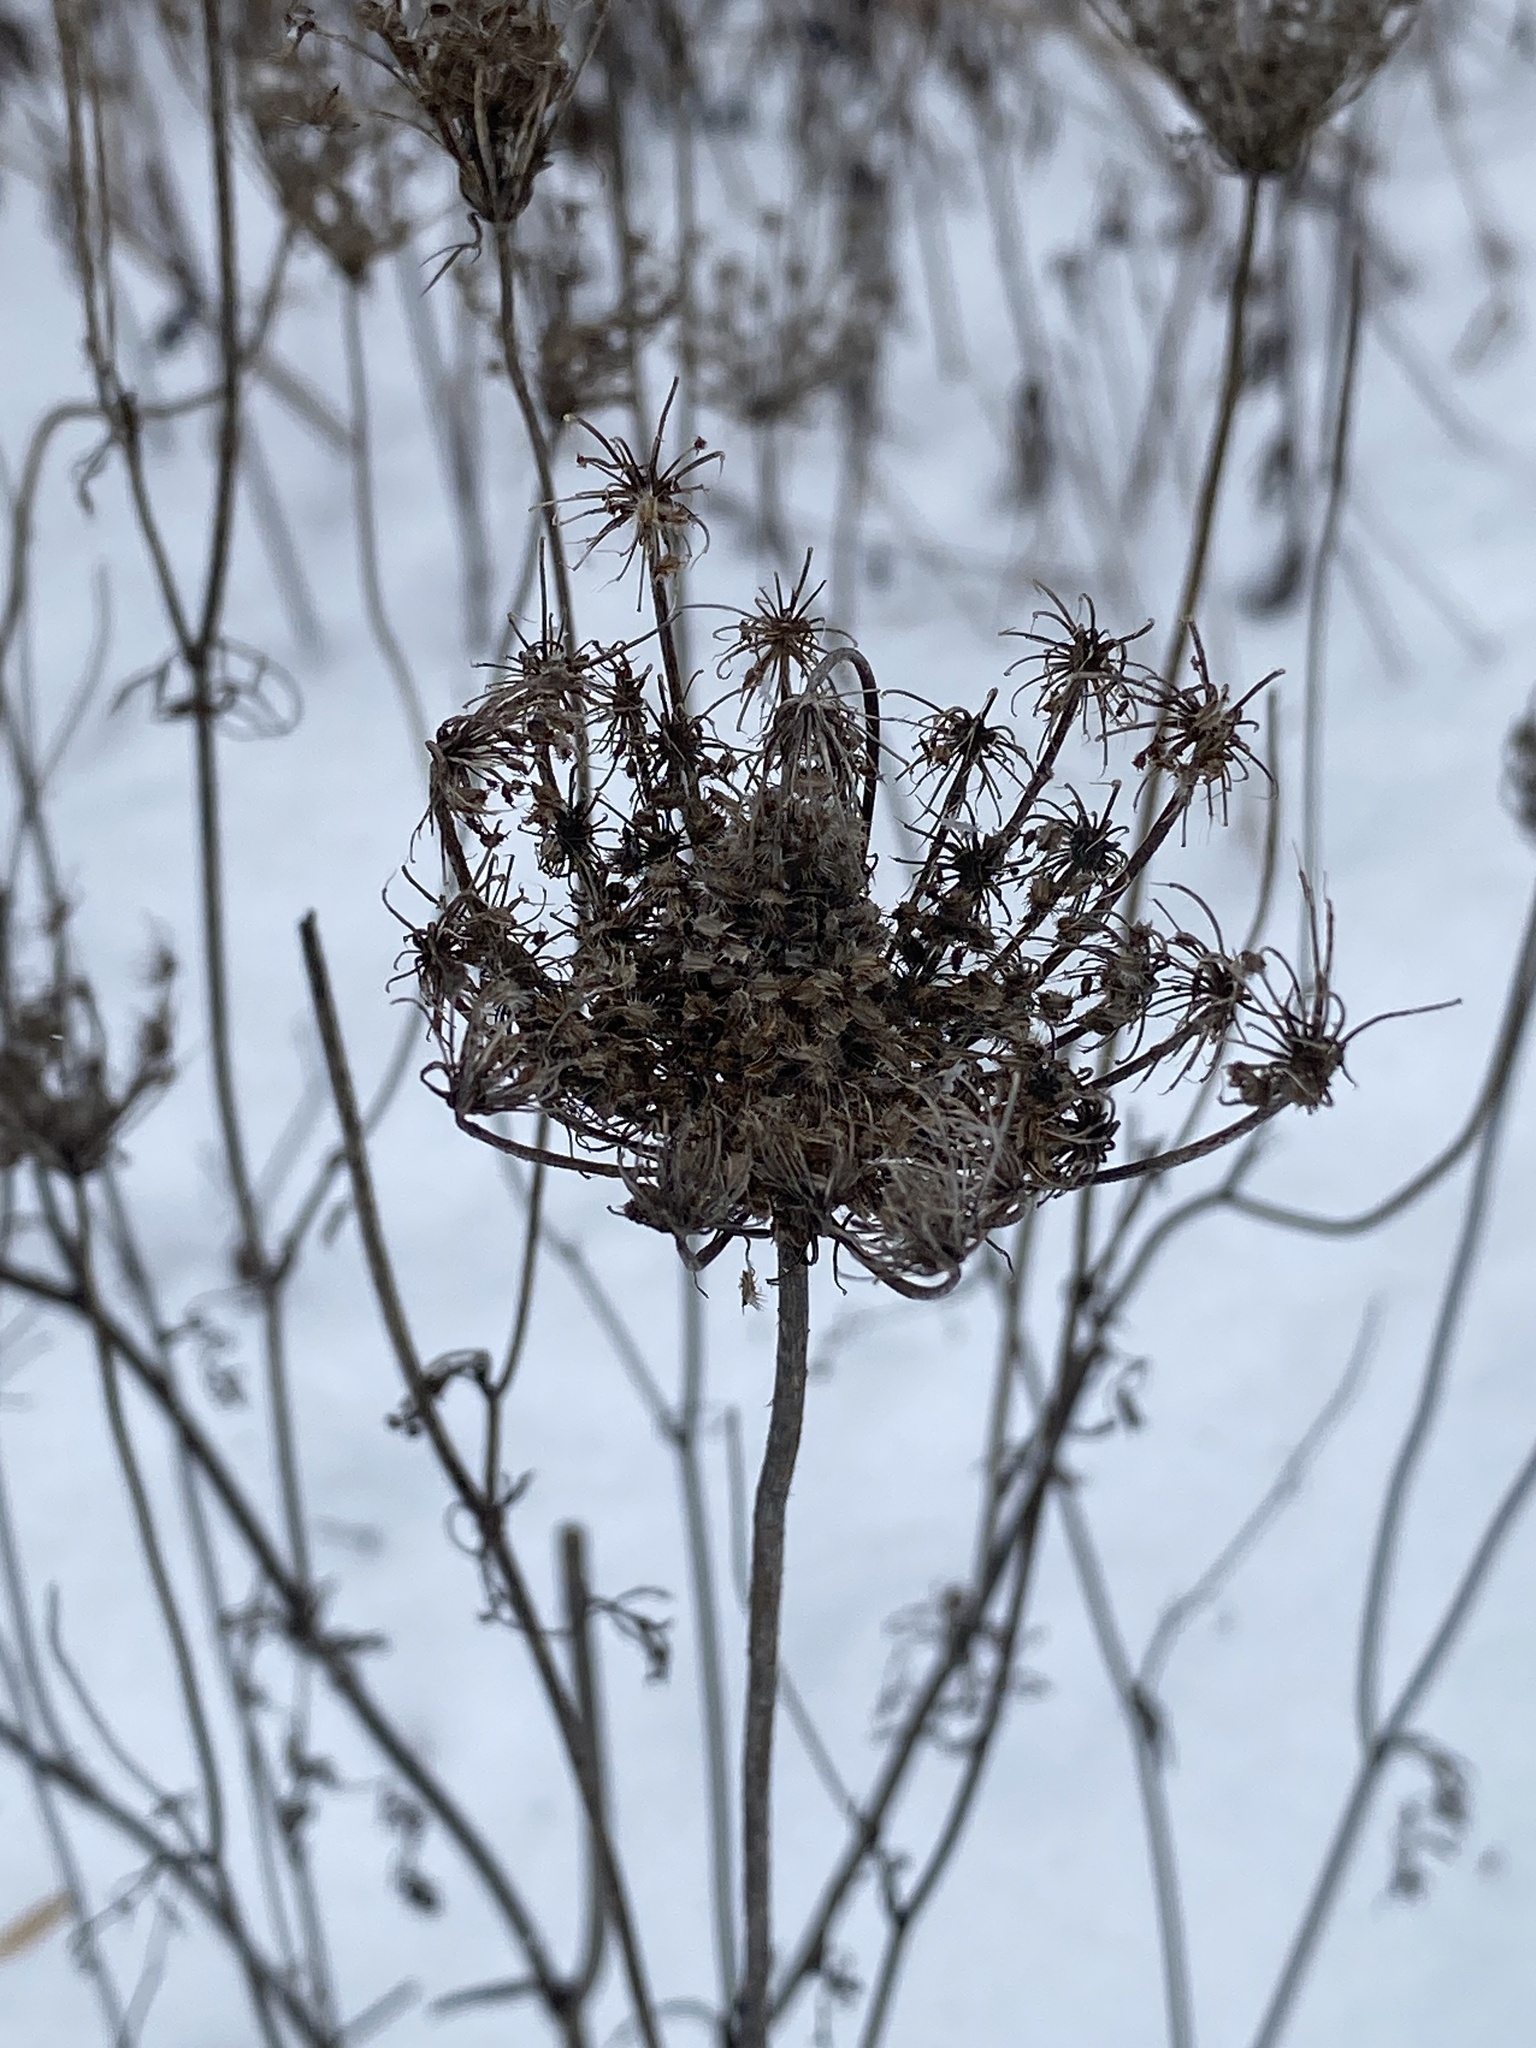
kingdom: Plantae
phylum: Tracheophyta
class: Magnoliopsida
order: Apiales
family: Apiaceae
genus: Daucus
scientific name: Daucus carota
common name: Wild carrot
